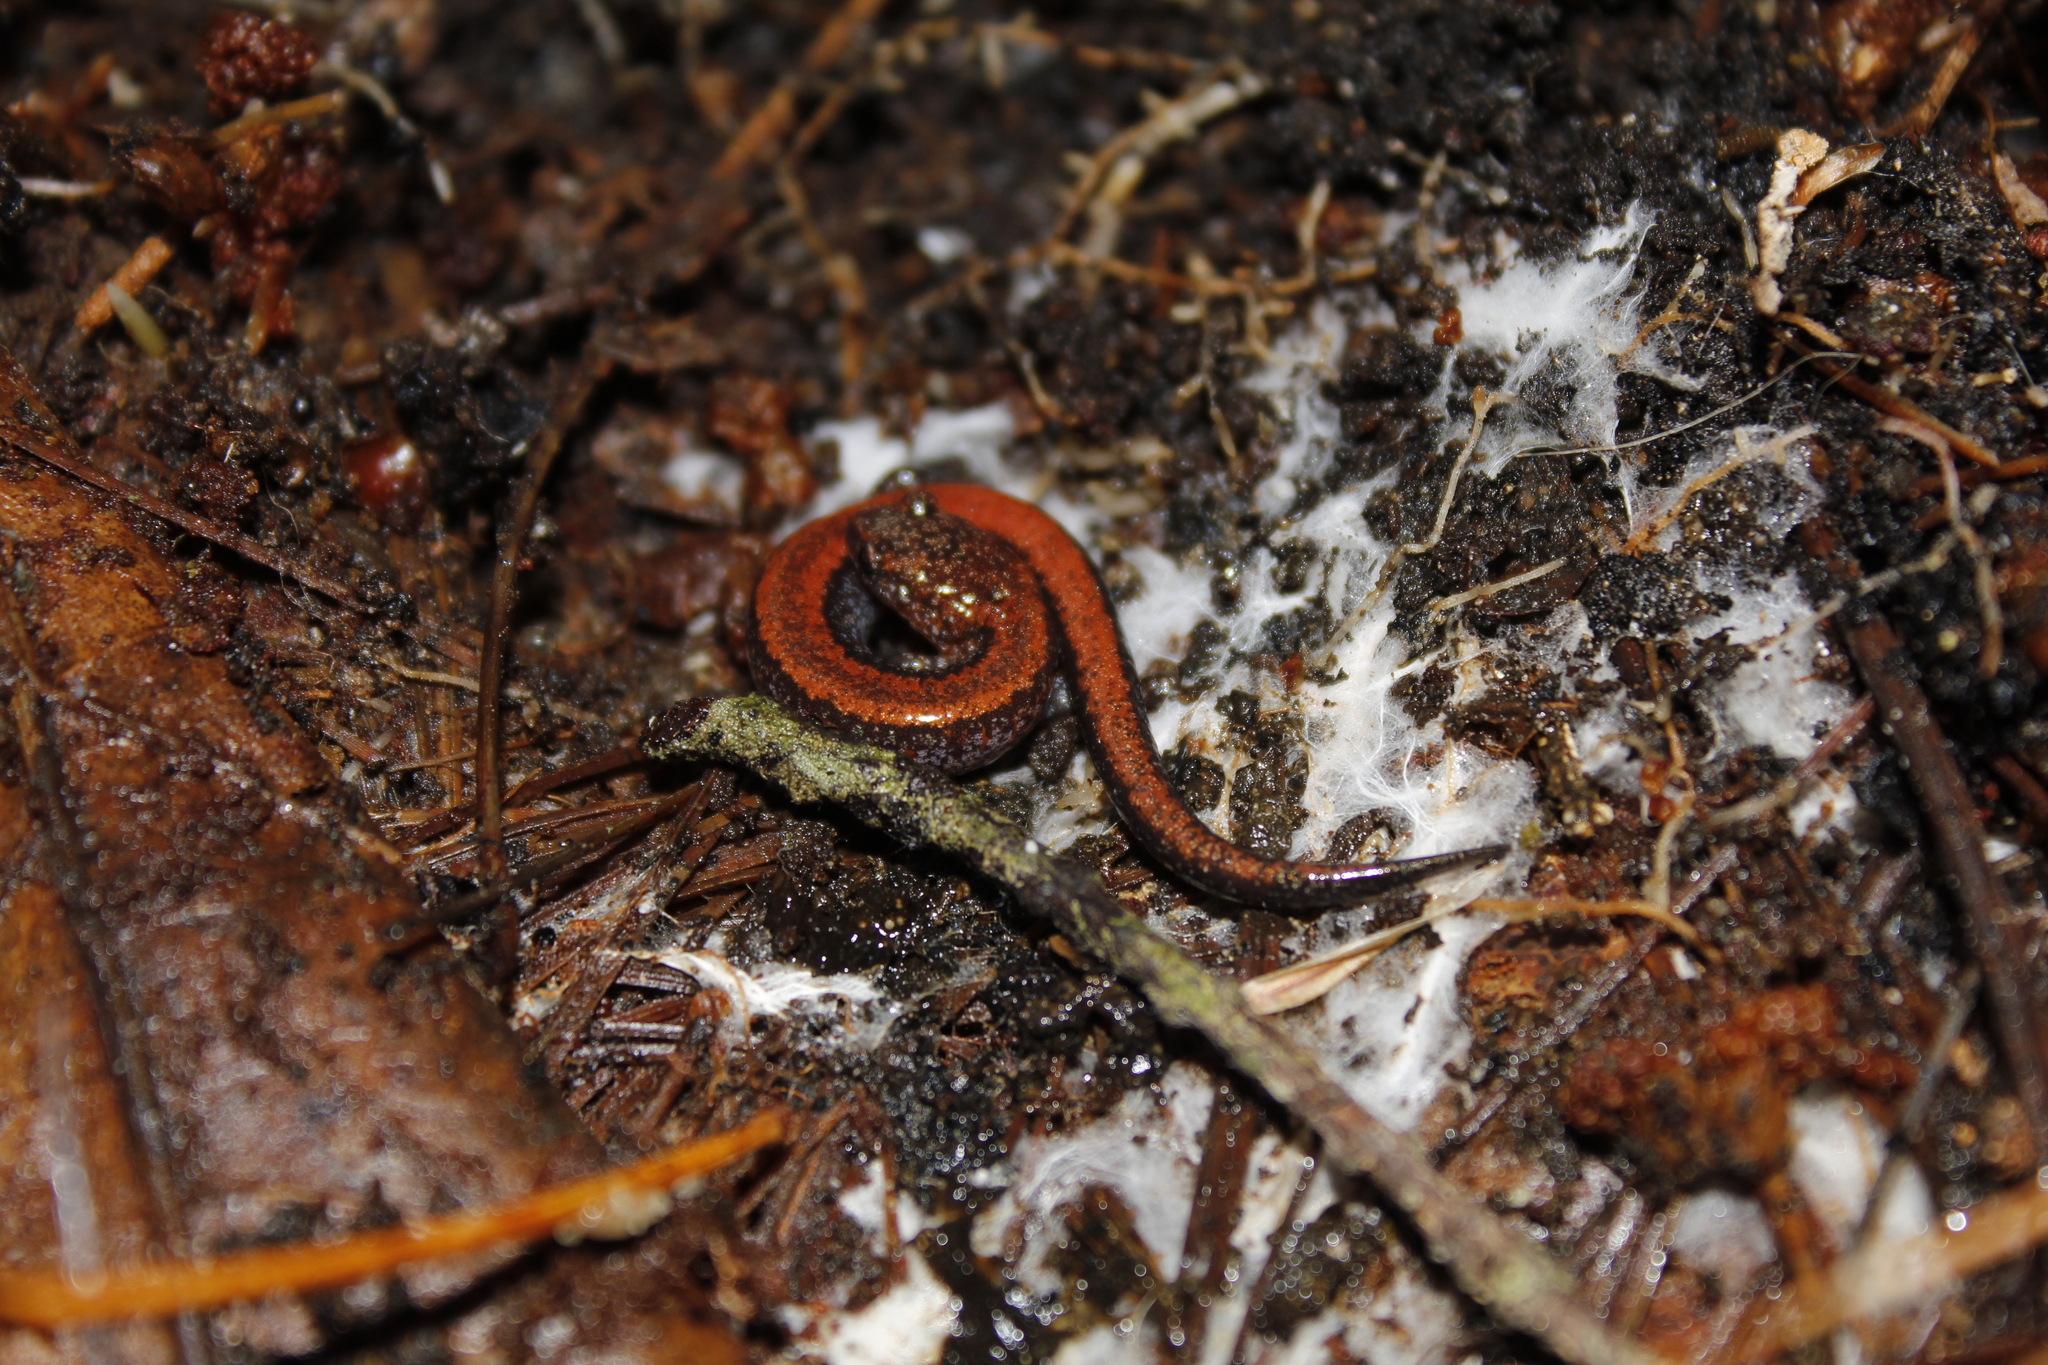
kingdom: Animalia
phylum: Chordata
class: Amphibia
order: Caudata
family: Plethodontidae
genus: Plethodon
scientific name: Plethodon cinereus
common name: Redback salamander
